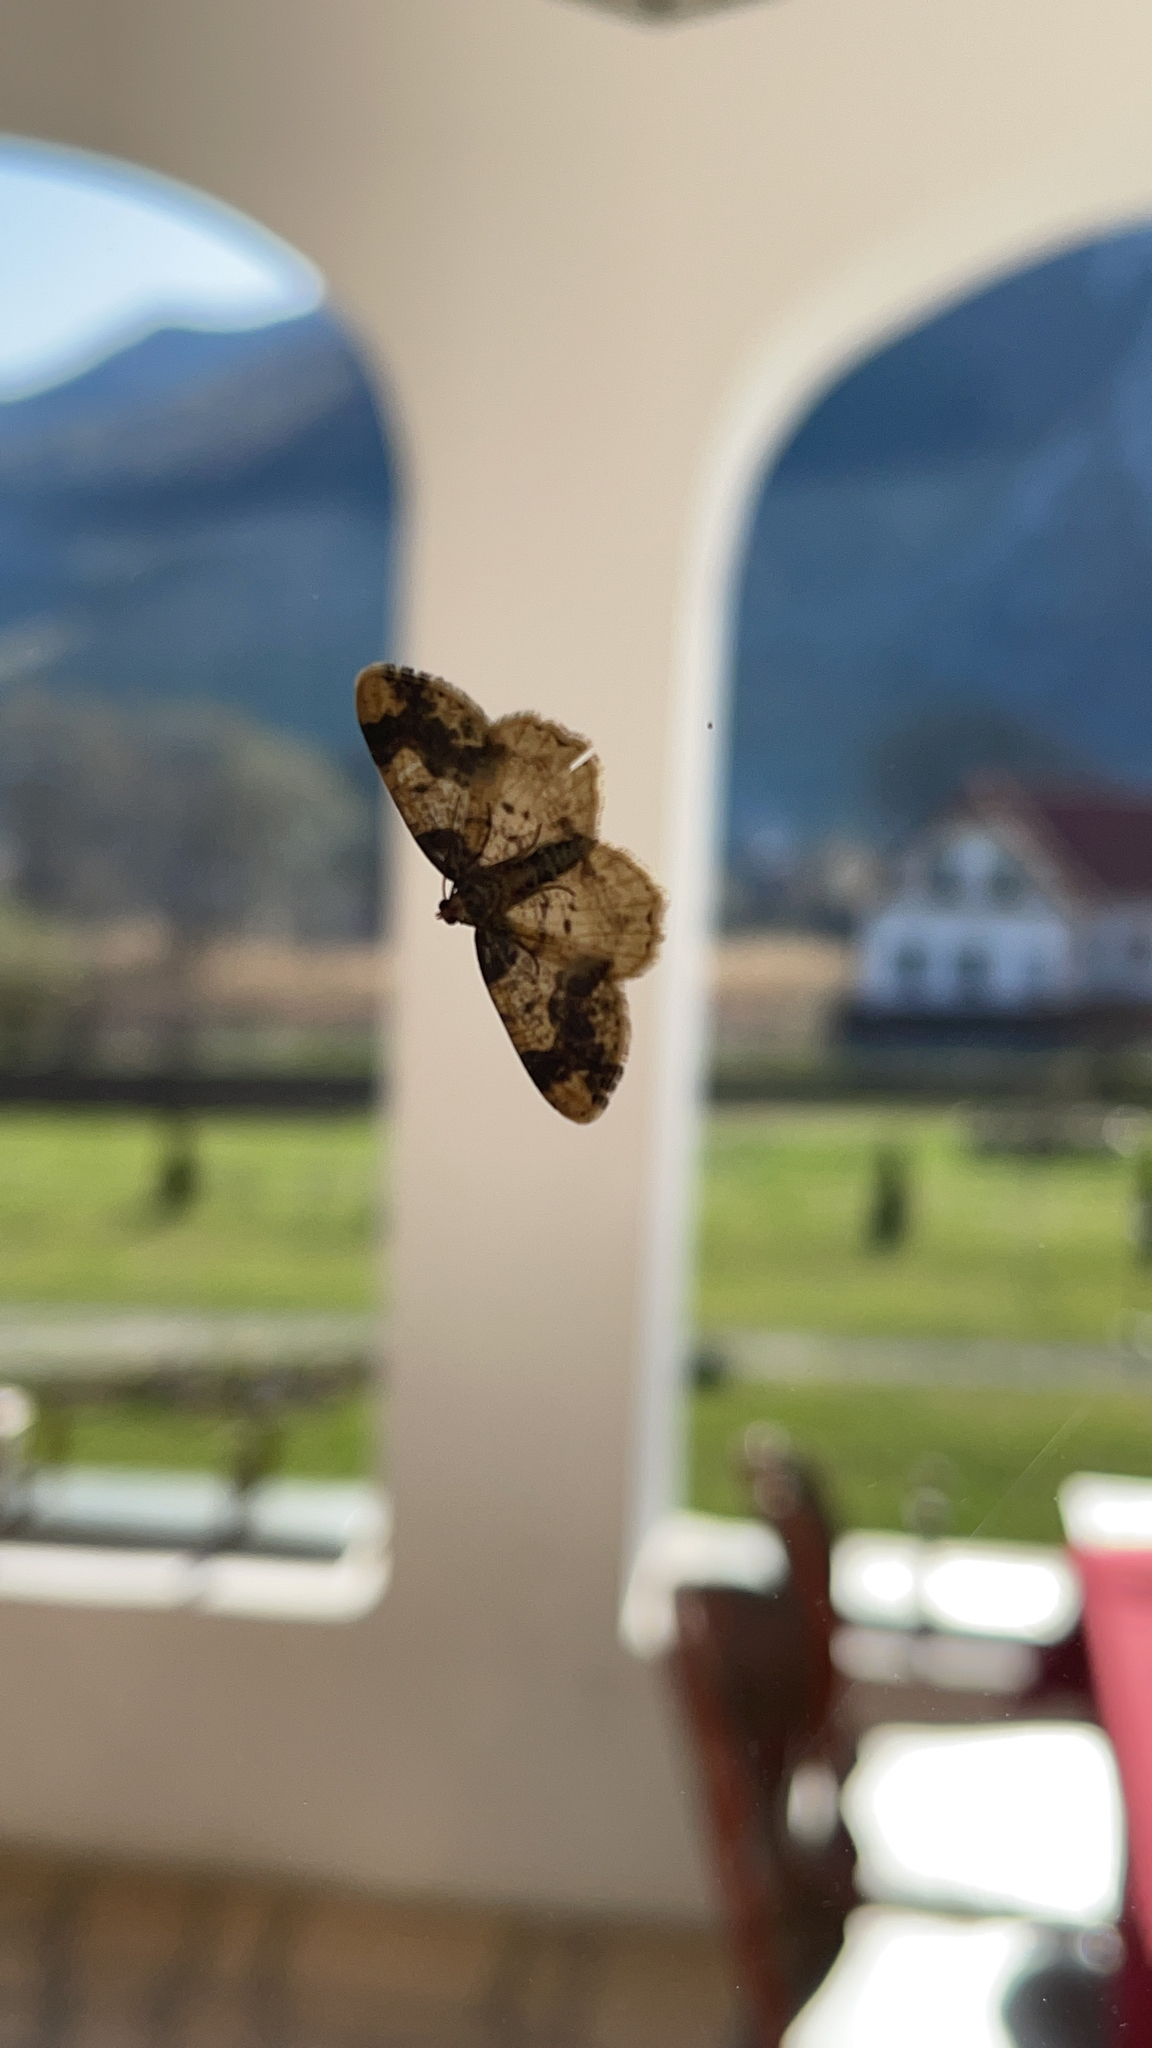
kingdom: Animalia
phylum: Arthropoda
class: Insecta
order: Lepidoptera
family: Geometridae
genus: Ligdia
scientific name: Ligdia adustata
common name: Scorched carpet
